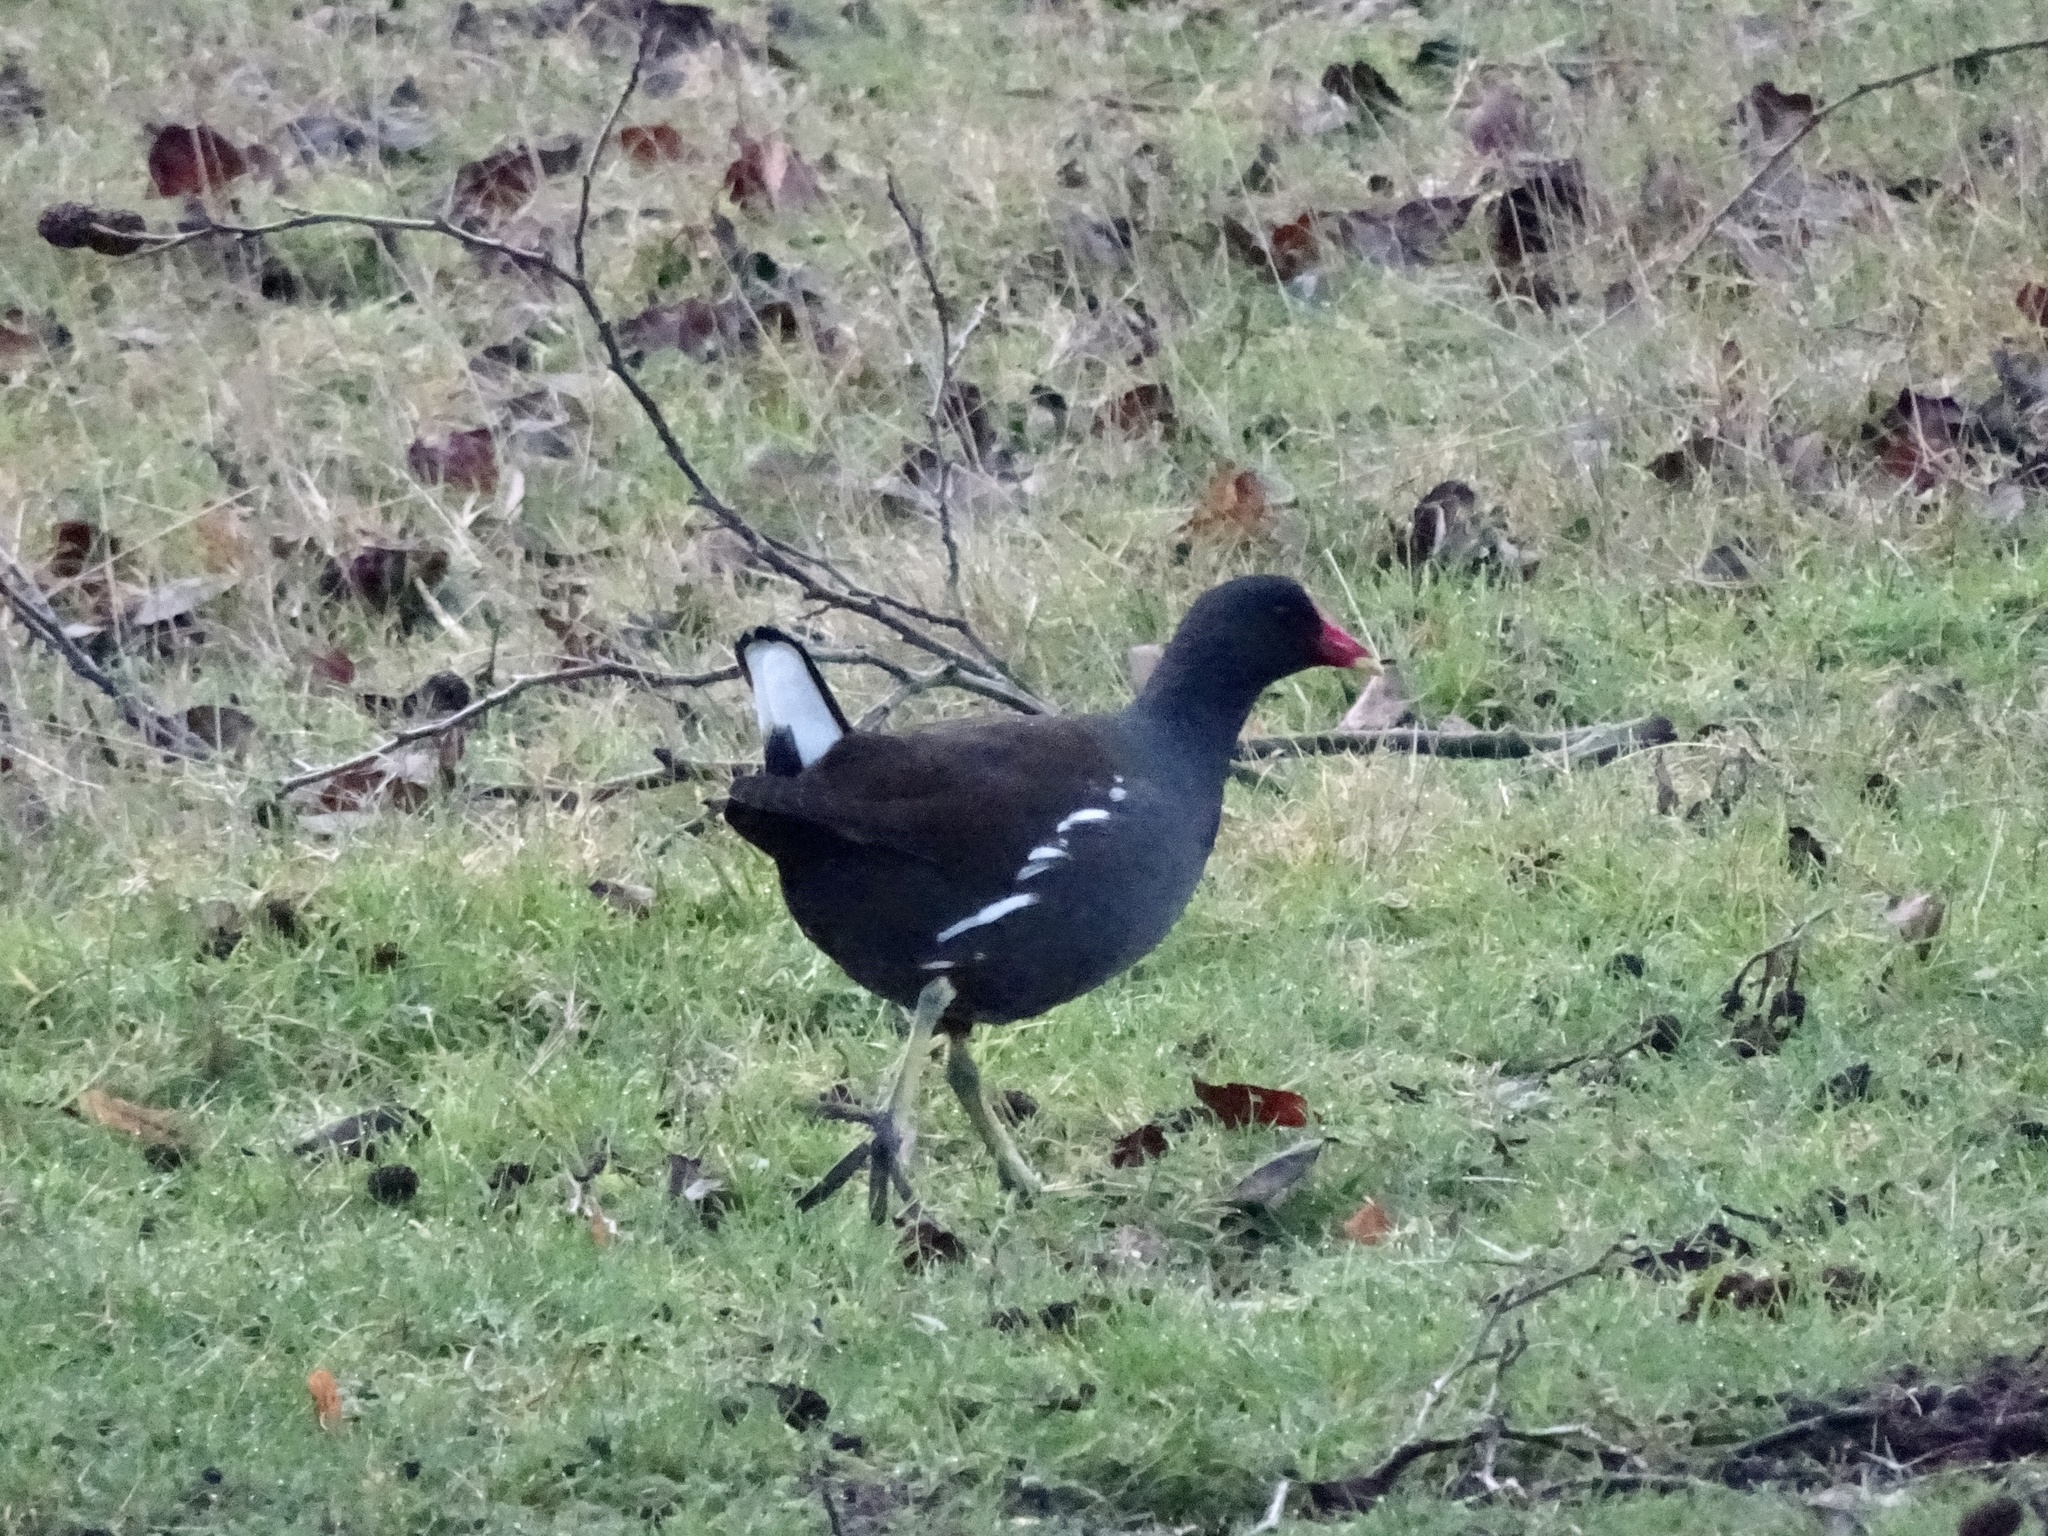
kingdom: Animalia
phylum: Chordata
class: Aves
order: Gruiformes
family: Rallidae
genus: Gallinula
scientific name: Gallinula chloropus
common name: Common moorhen
